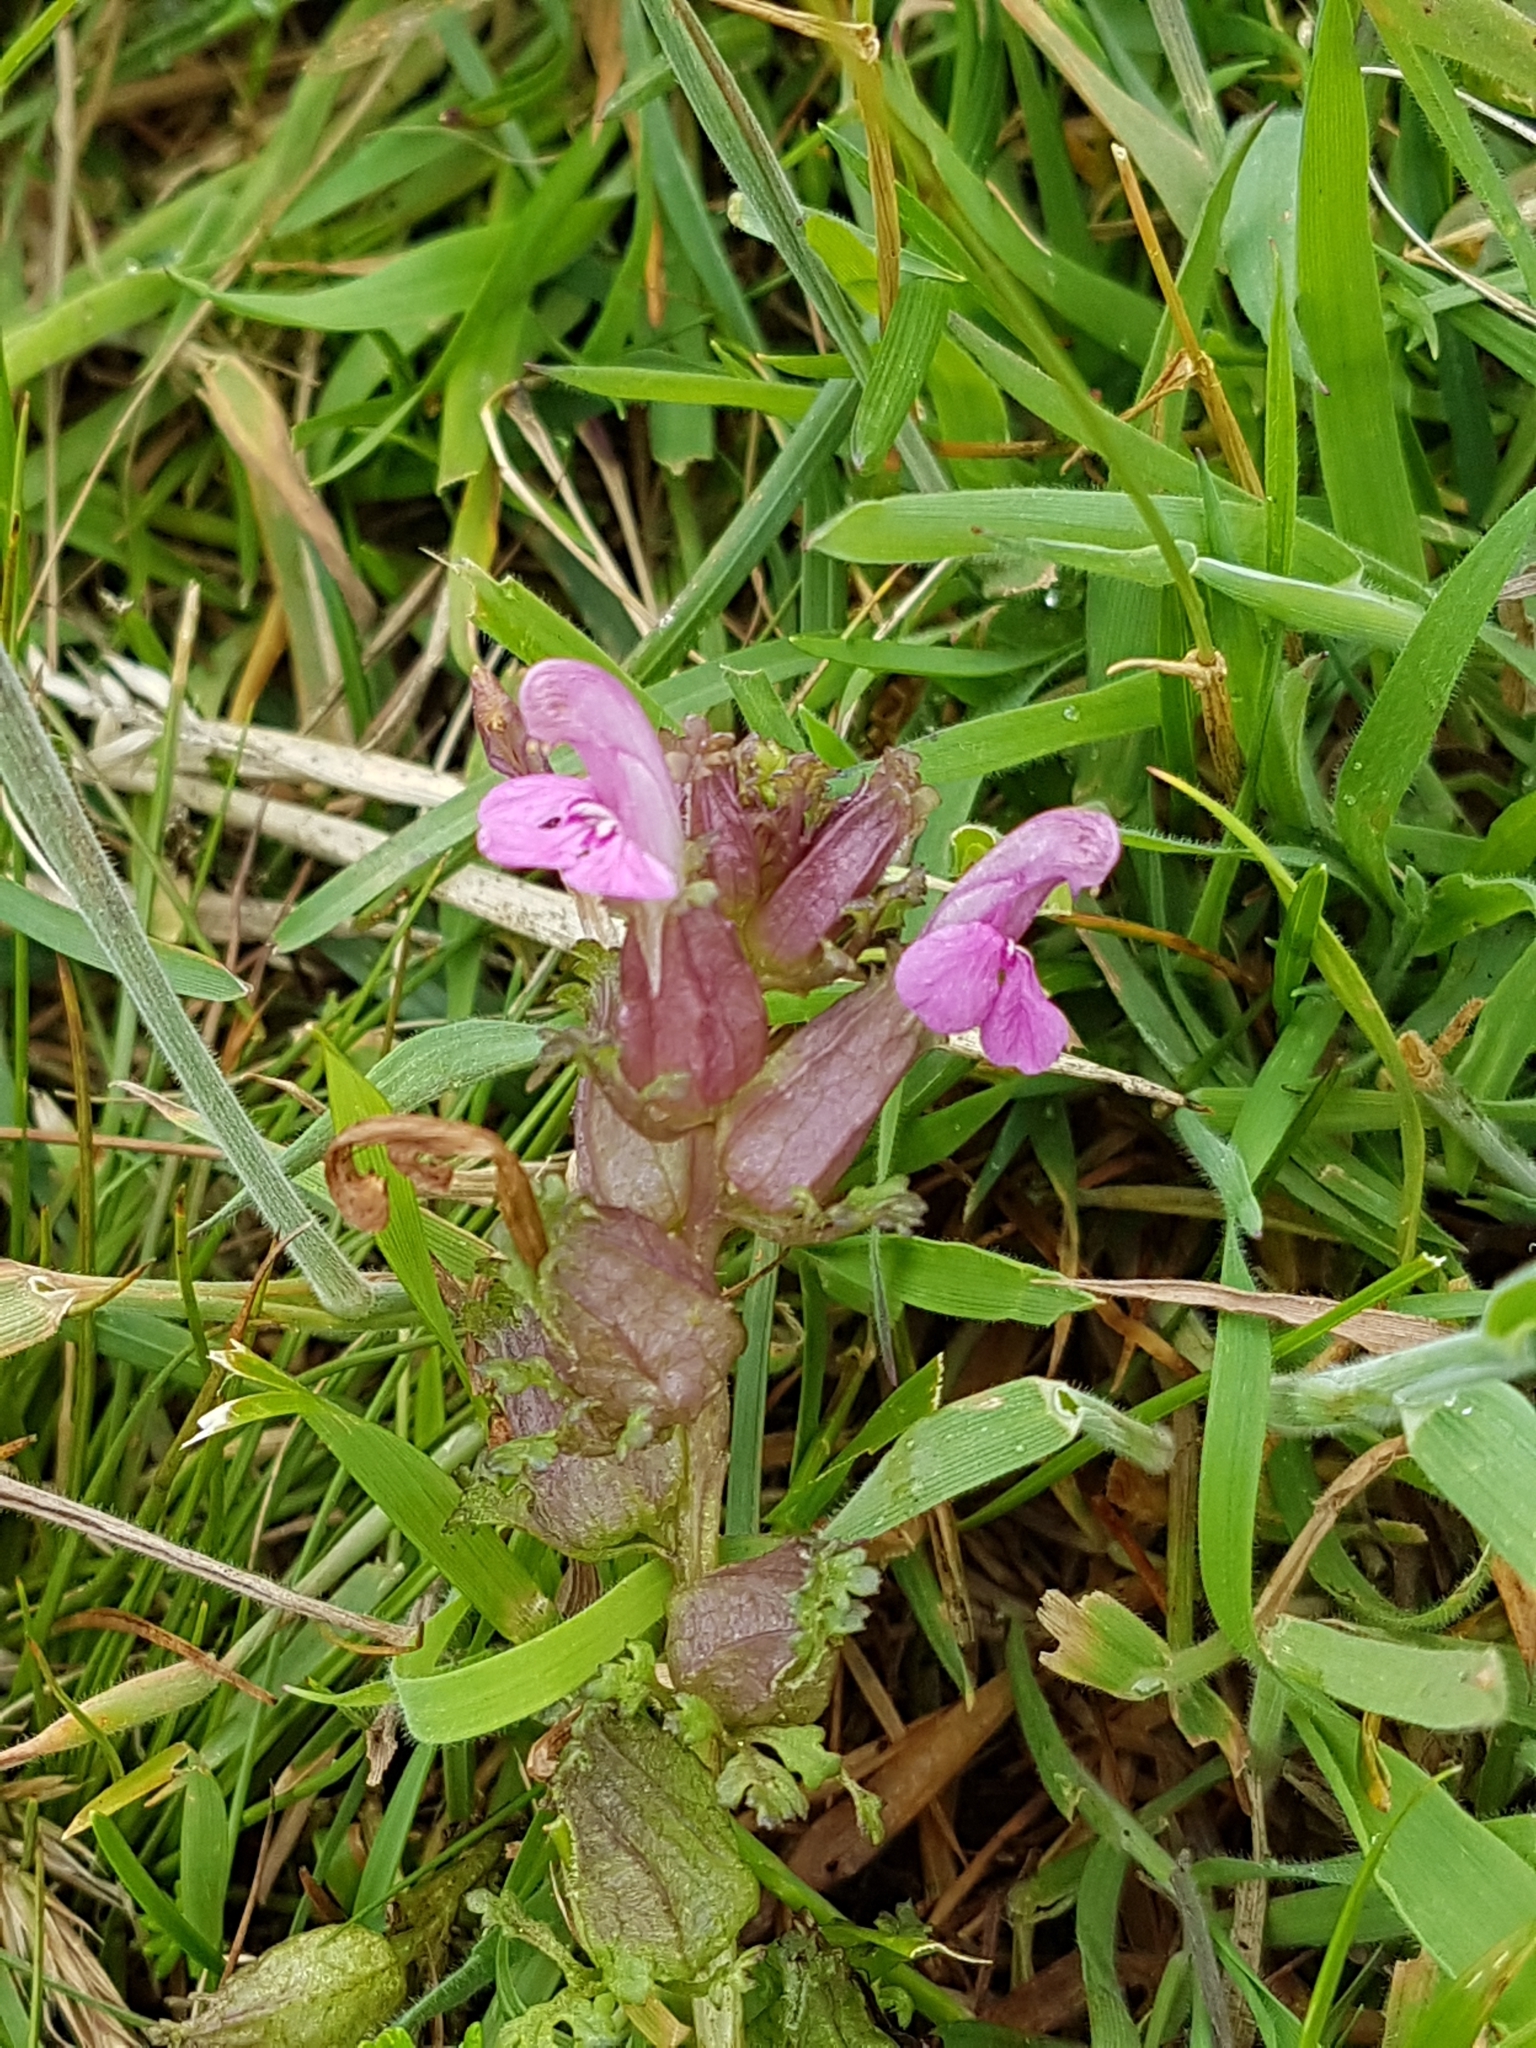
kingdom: Plantae
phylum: Tracheophyta
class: Magnoliopsida
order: Lamiales
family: Orobanchaceae
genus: Pedicularis
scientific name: Pedicularis sylvatica
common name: Lousewort
